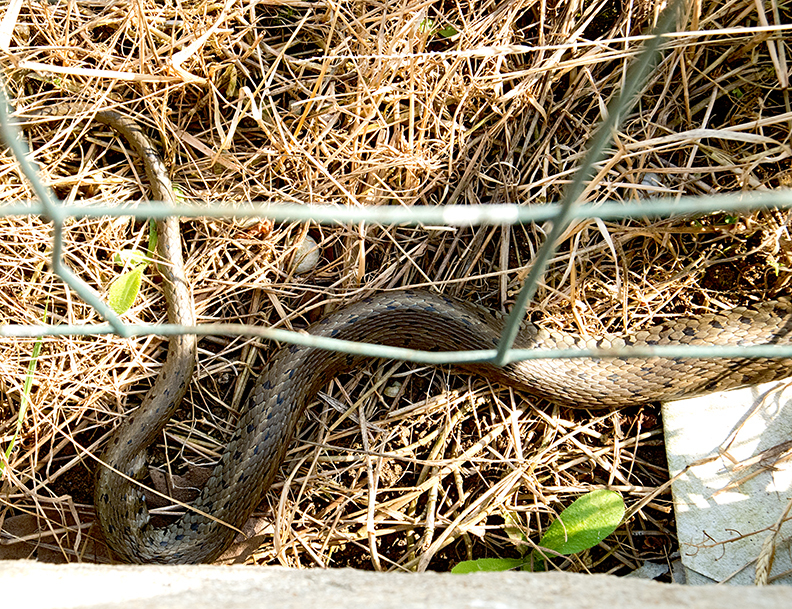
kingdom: Animalia
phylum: Chordata
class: Squamata
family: Colubridae
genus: Natrix
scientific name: Natrix natrix
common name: Grass snake
